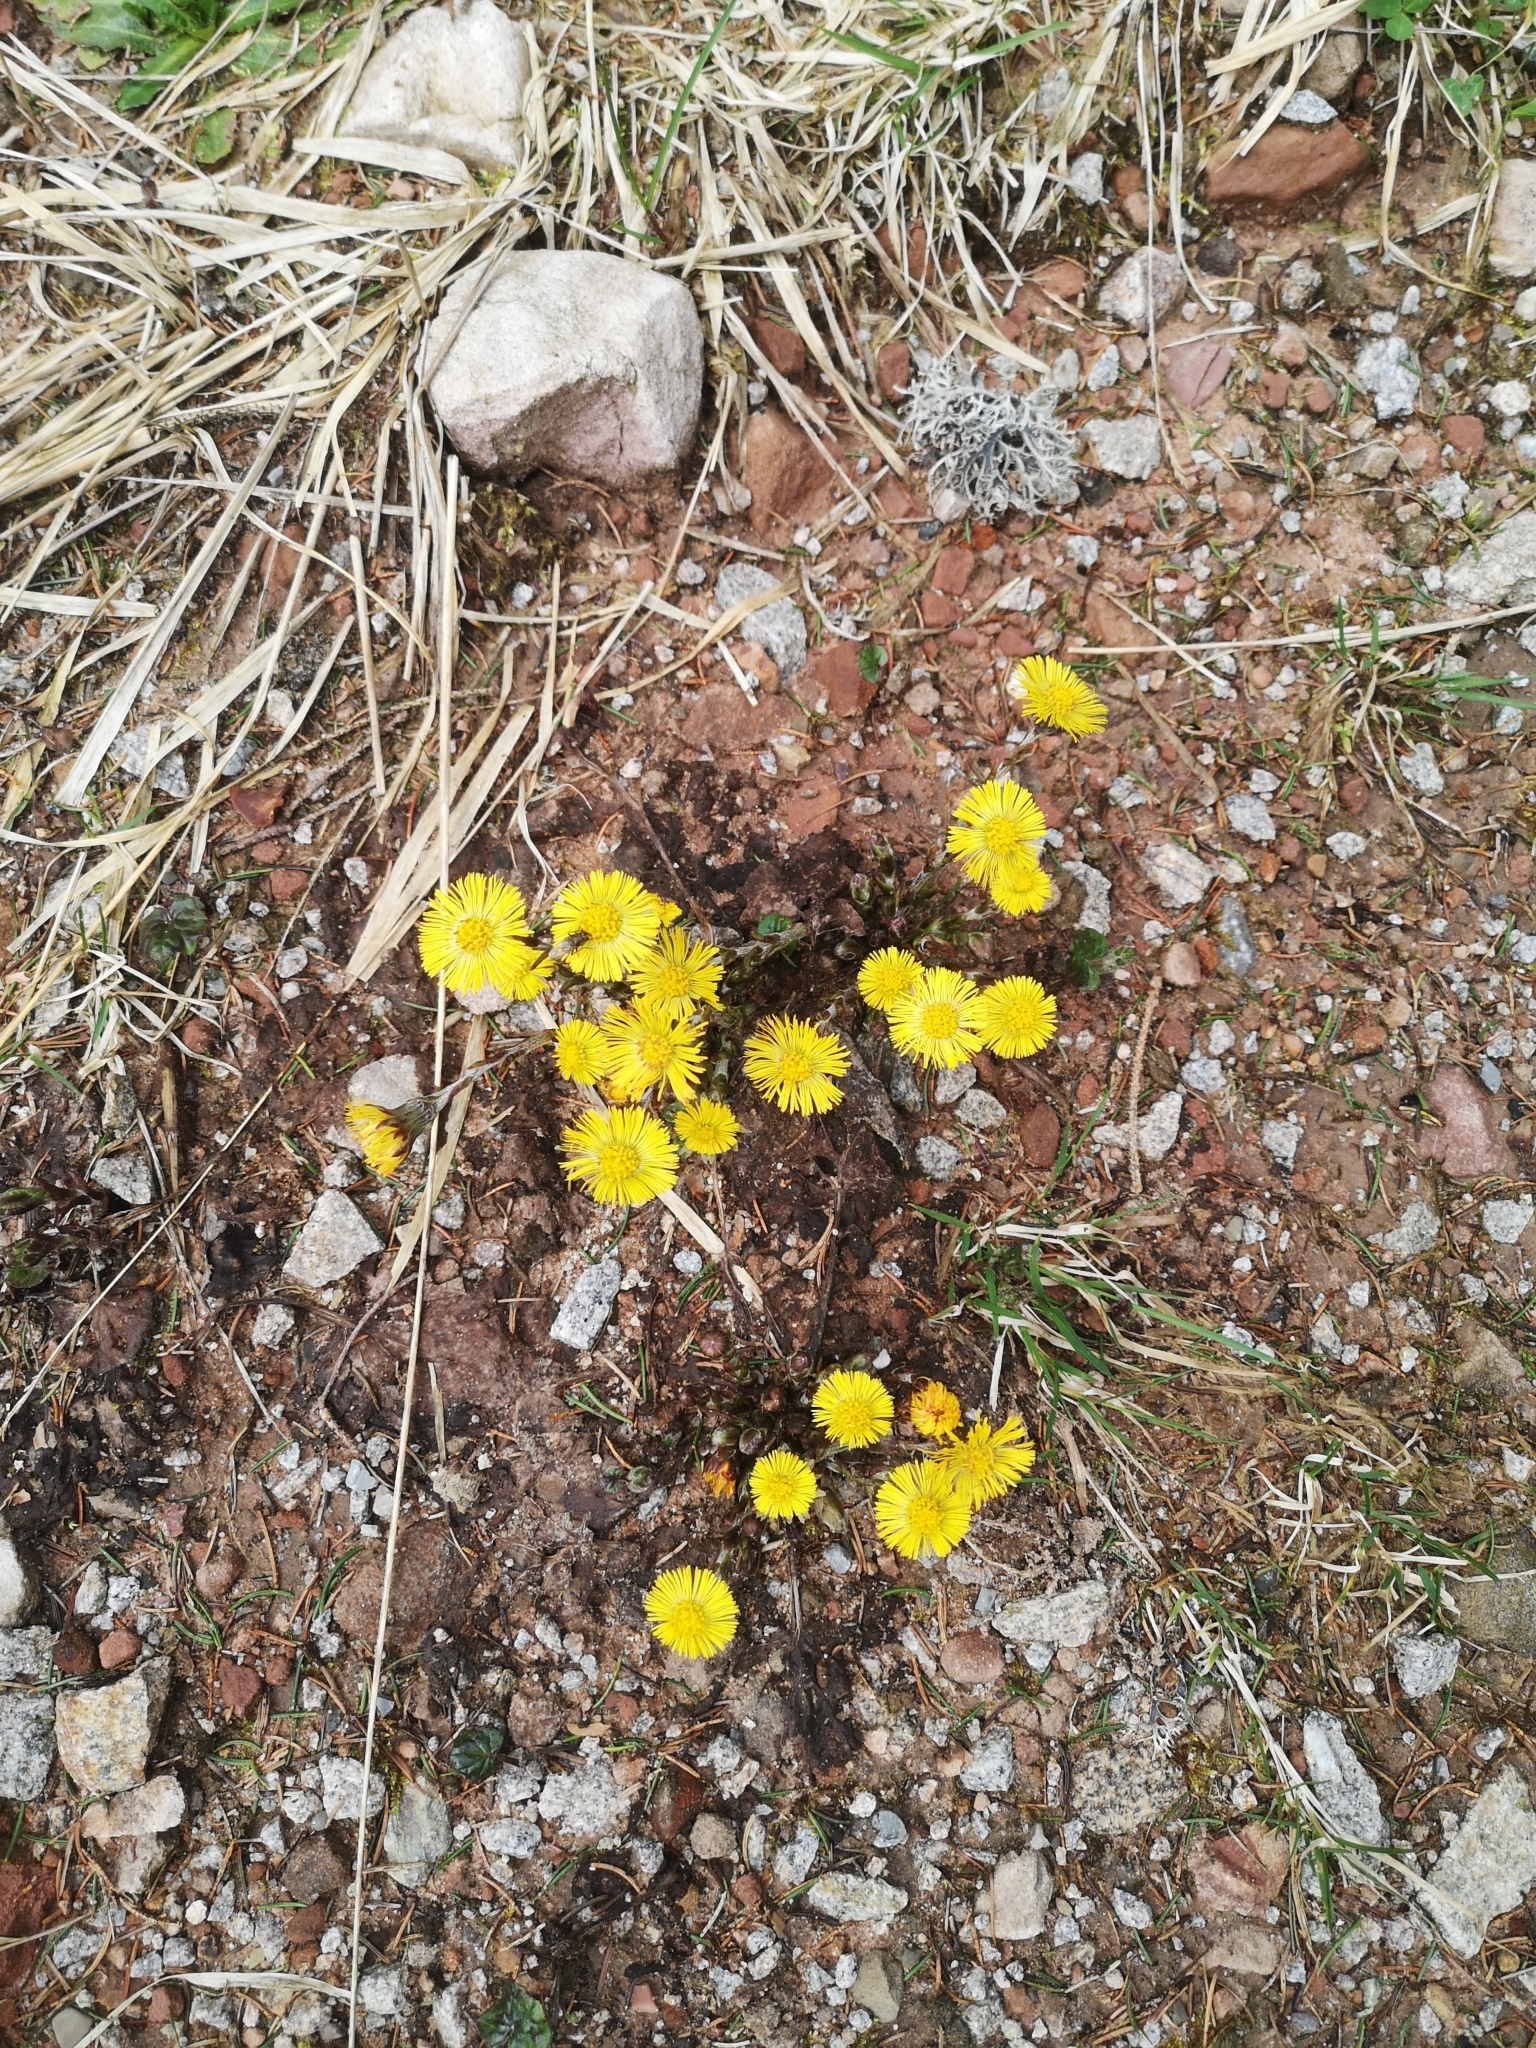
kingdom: Plantae
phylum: Tracheophyta
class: Magnoliopsida
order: Asterales
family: Asteraceae
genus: Tussilago
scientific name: Tussilago farfara
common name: Coltsfoot
